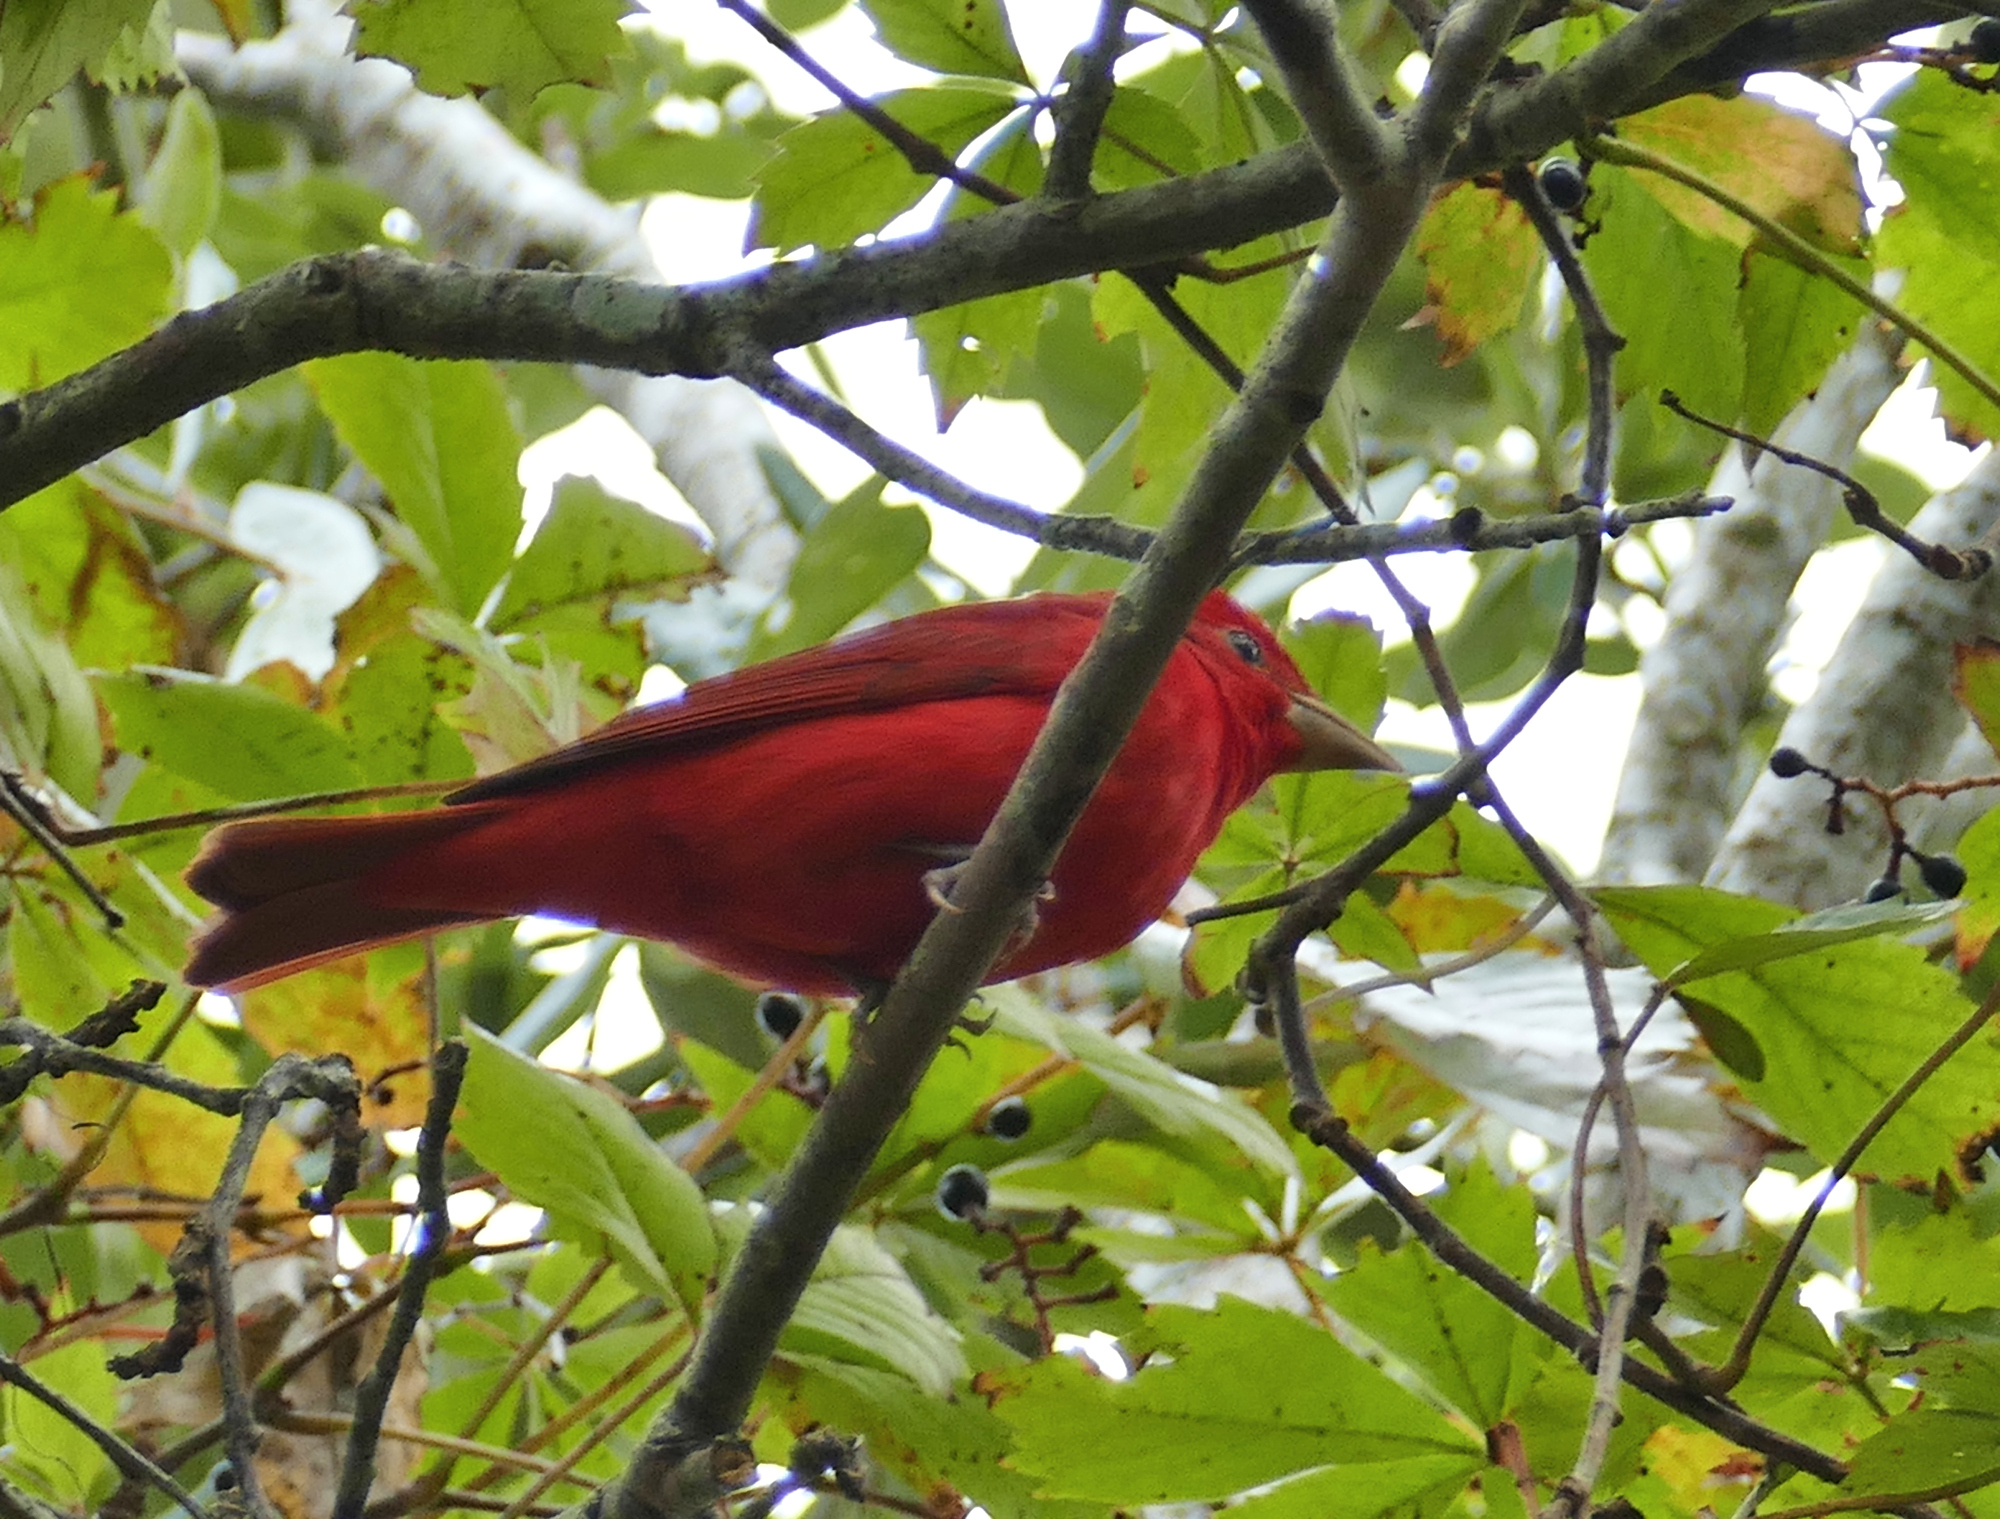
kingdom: Animalia
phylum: Chordata
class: Aves
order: Passeriformes
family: Cardinalidae
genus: Piranga
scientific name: Piranga rubra
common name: Summer tanager
